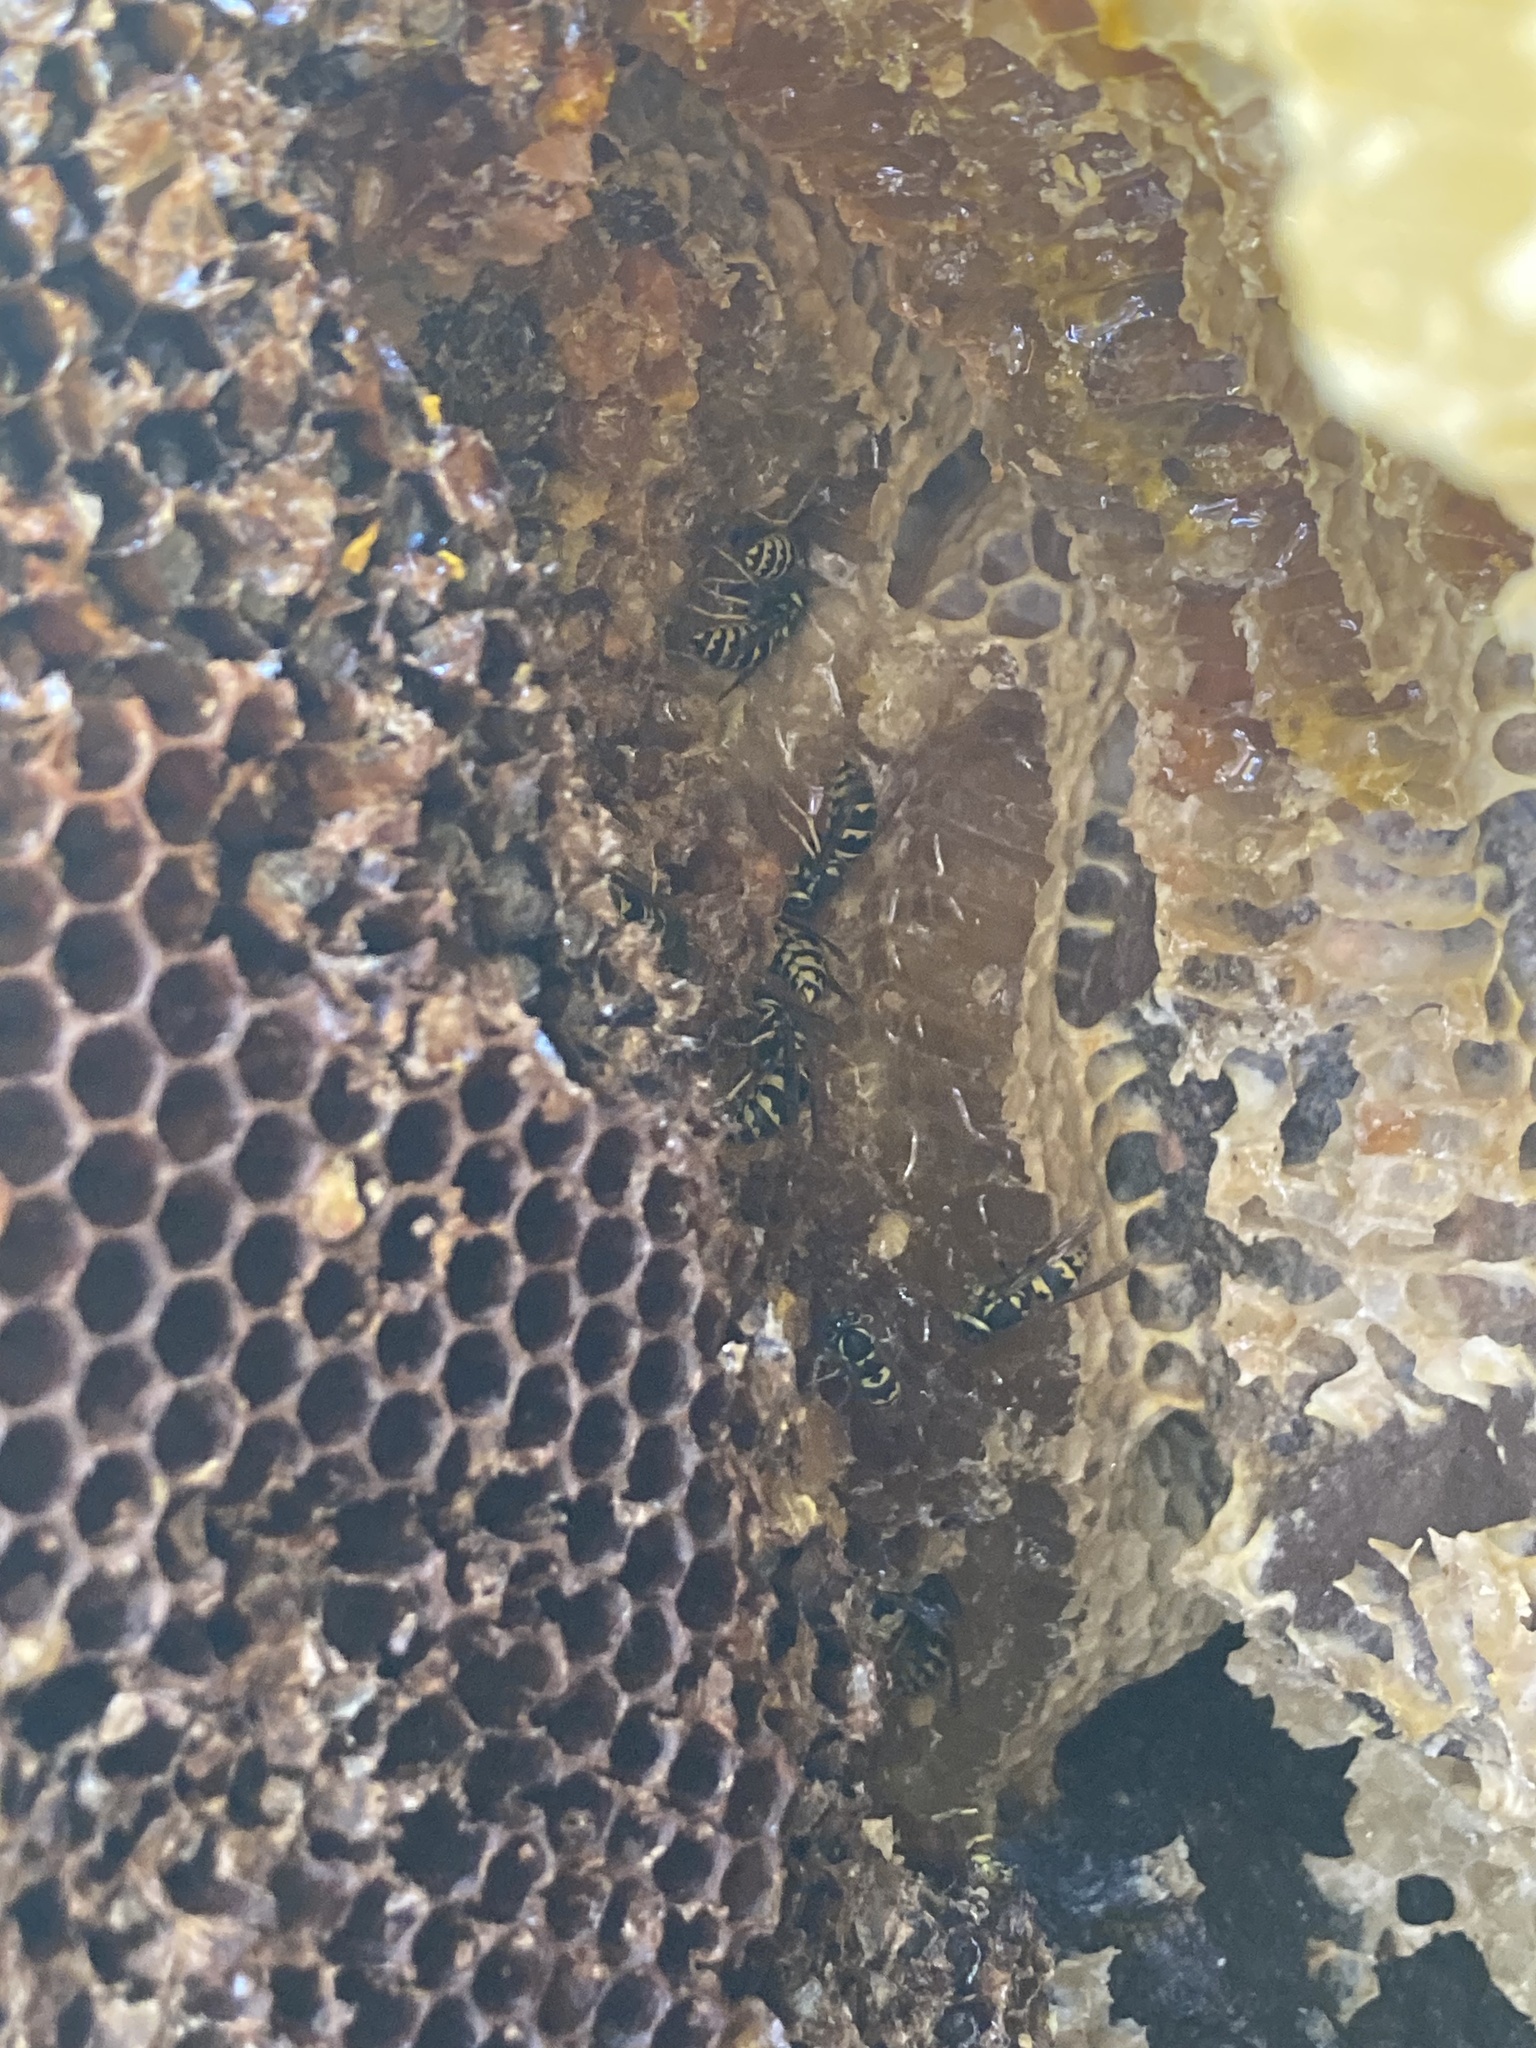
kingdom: Animalia
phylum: Arthropoda
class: Insecta
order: Hymenoptera
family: Vespidae
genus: Vespula
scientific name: Vespula pensylvanica
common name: Western yellowjacket
